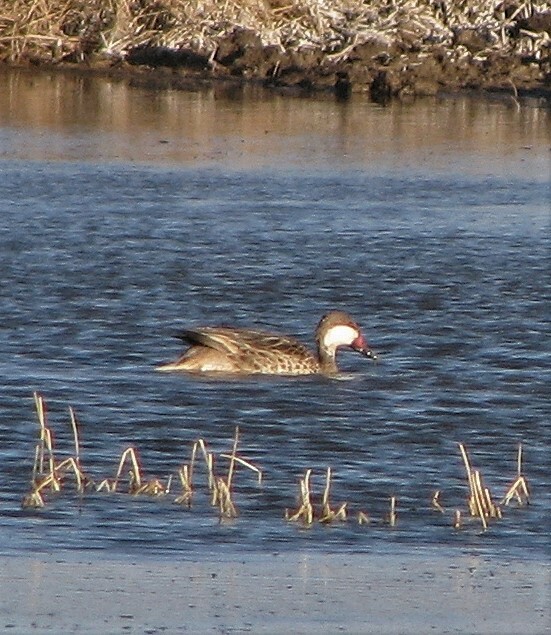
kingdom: Animalia
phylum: Chordata
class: Aves
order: Anseriformes
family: Anatidae
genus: Anas
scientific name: Anas bahamensis
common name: White-cheeked pintail
